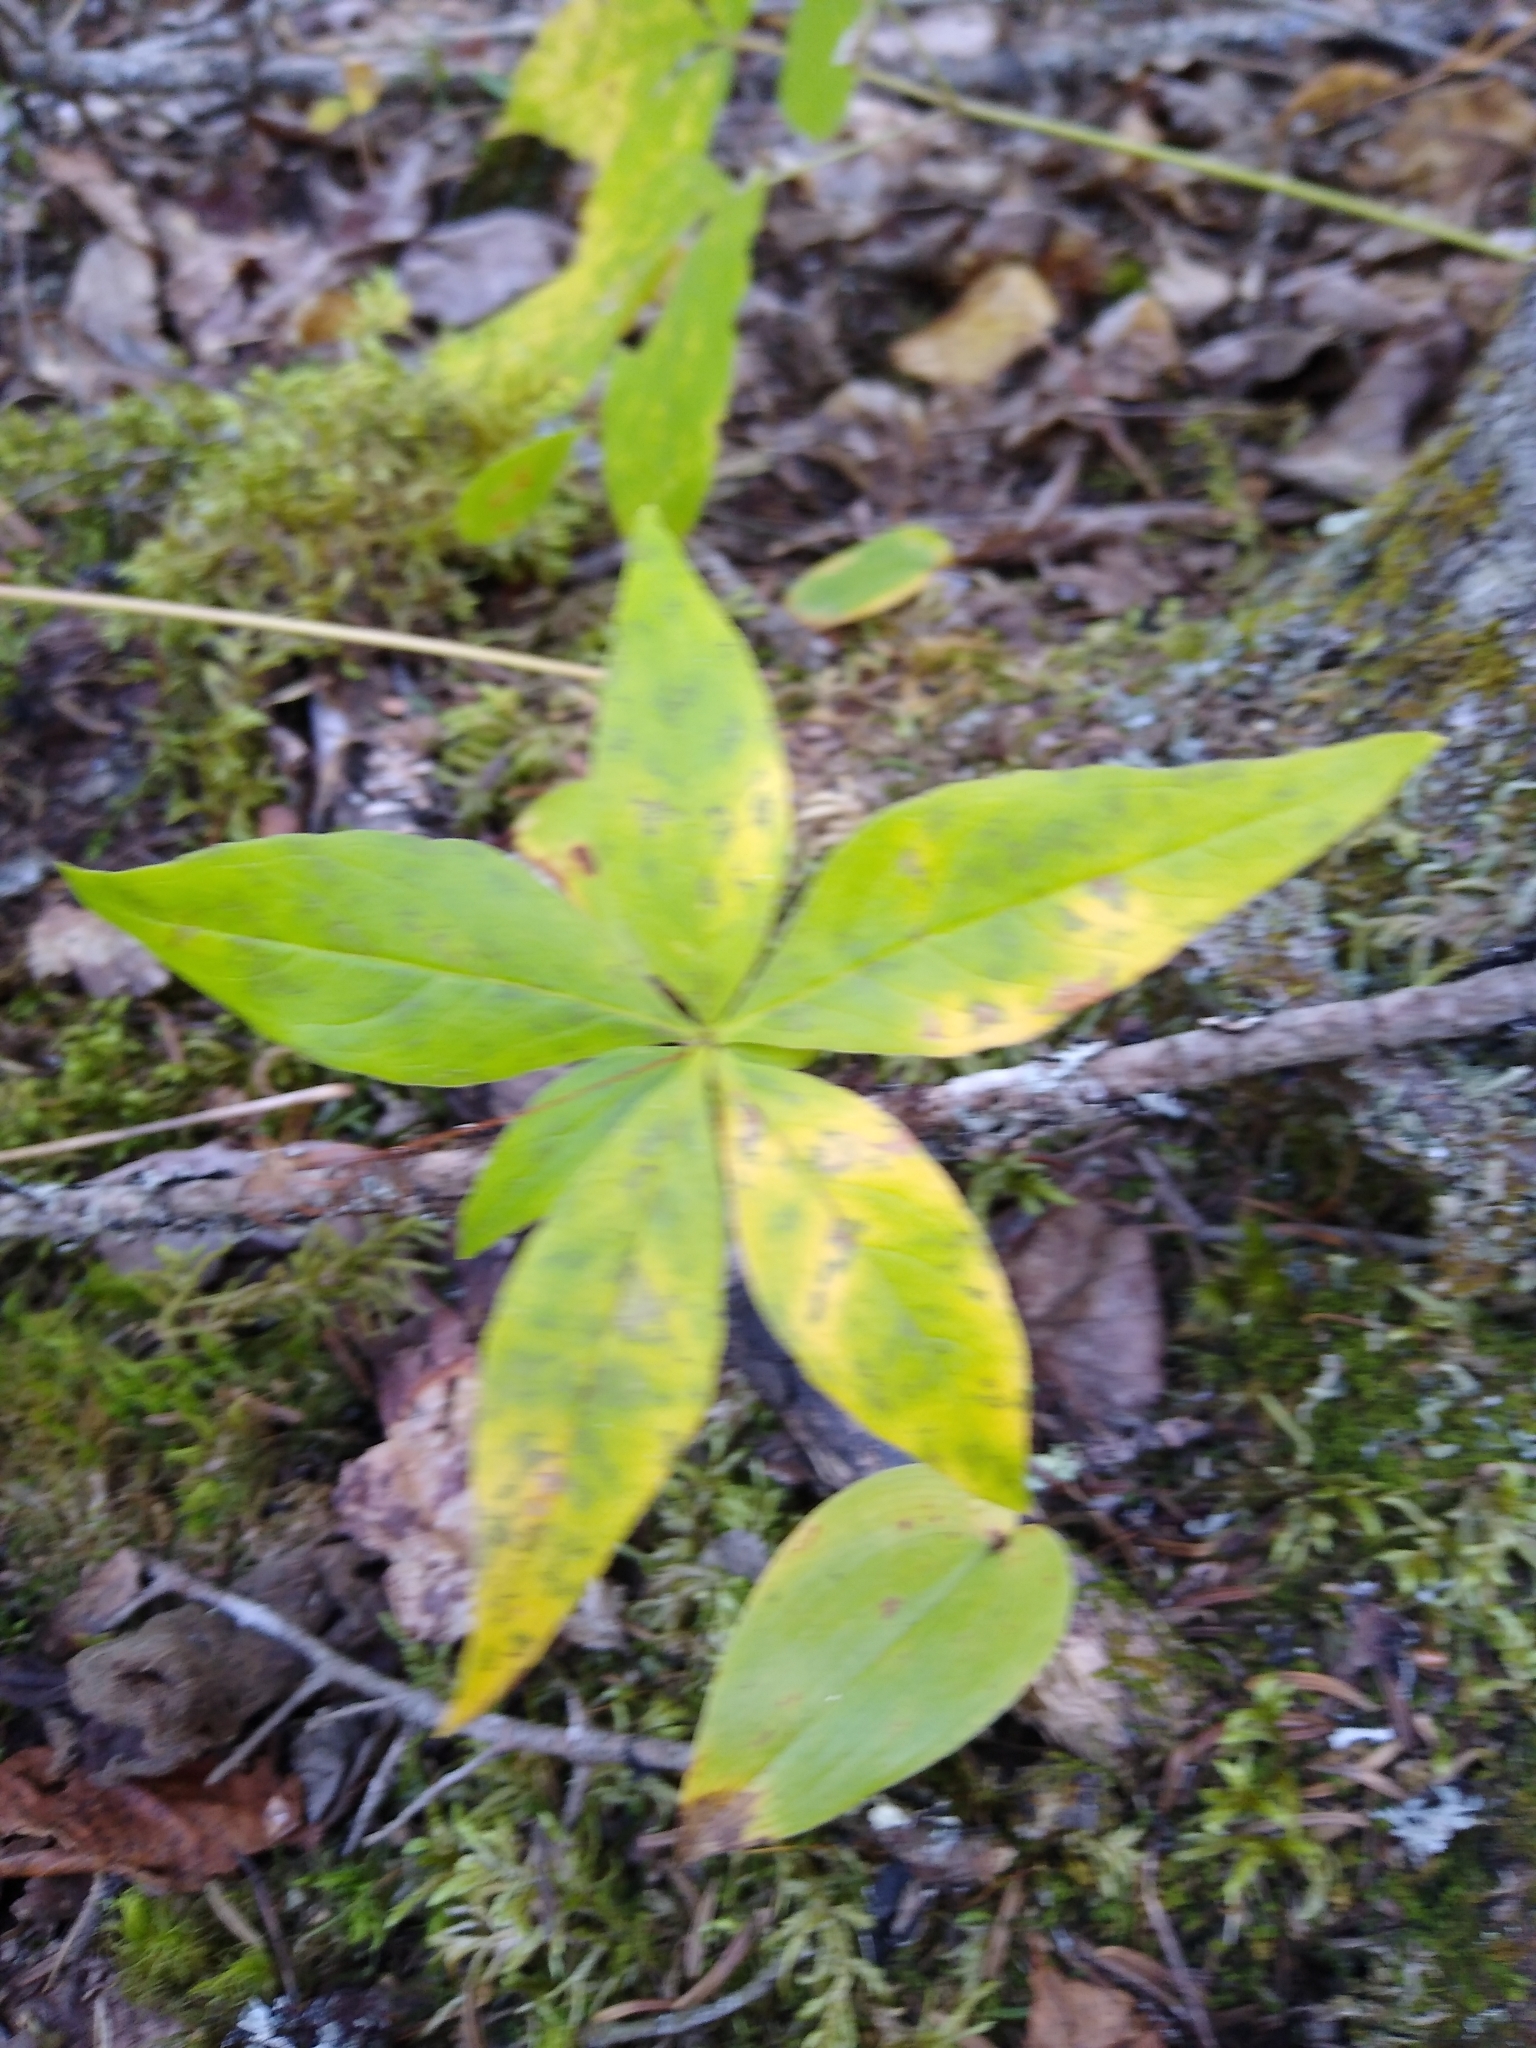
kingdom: Plantae
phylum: Tracheophyta
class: Magnoliopsida
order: Ericales
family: Primulaceae
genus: Lysimachia
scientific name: Lysimachia borealis
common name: American starflower
